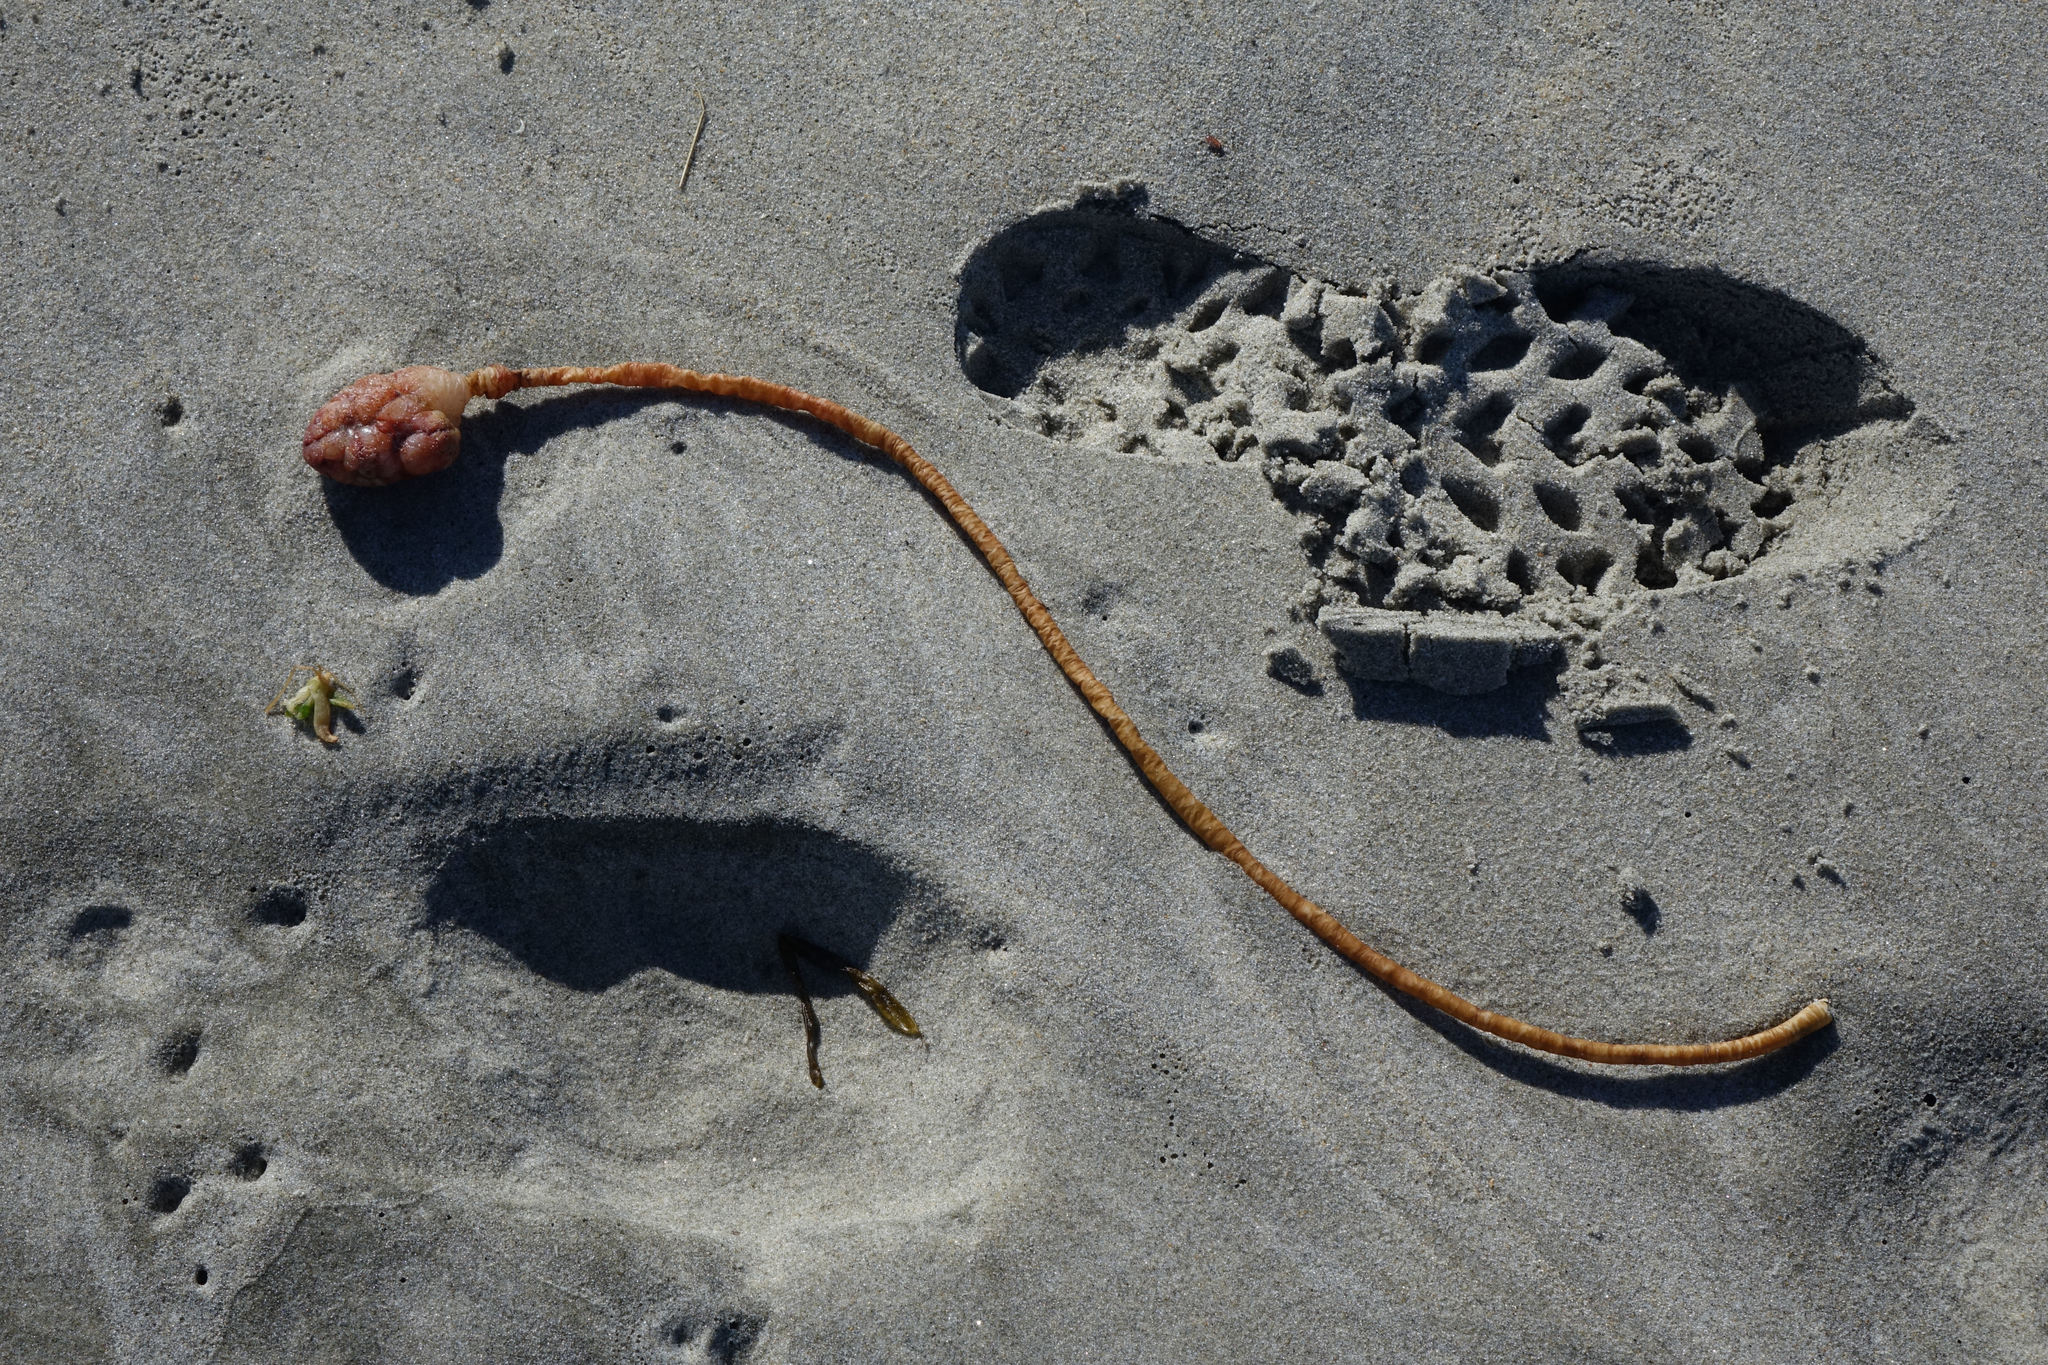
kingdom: Animalia
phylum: Chordata
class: Ascidiacea
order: Stolidobranchia
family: Pyuridae
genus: Pyura
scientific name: Pyura pachydermatina
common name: Sea tulip
